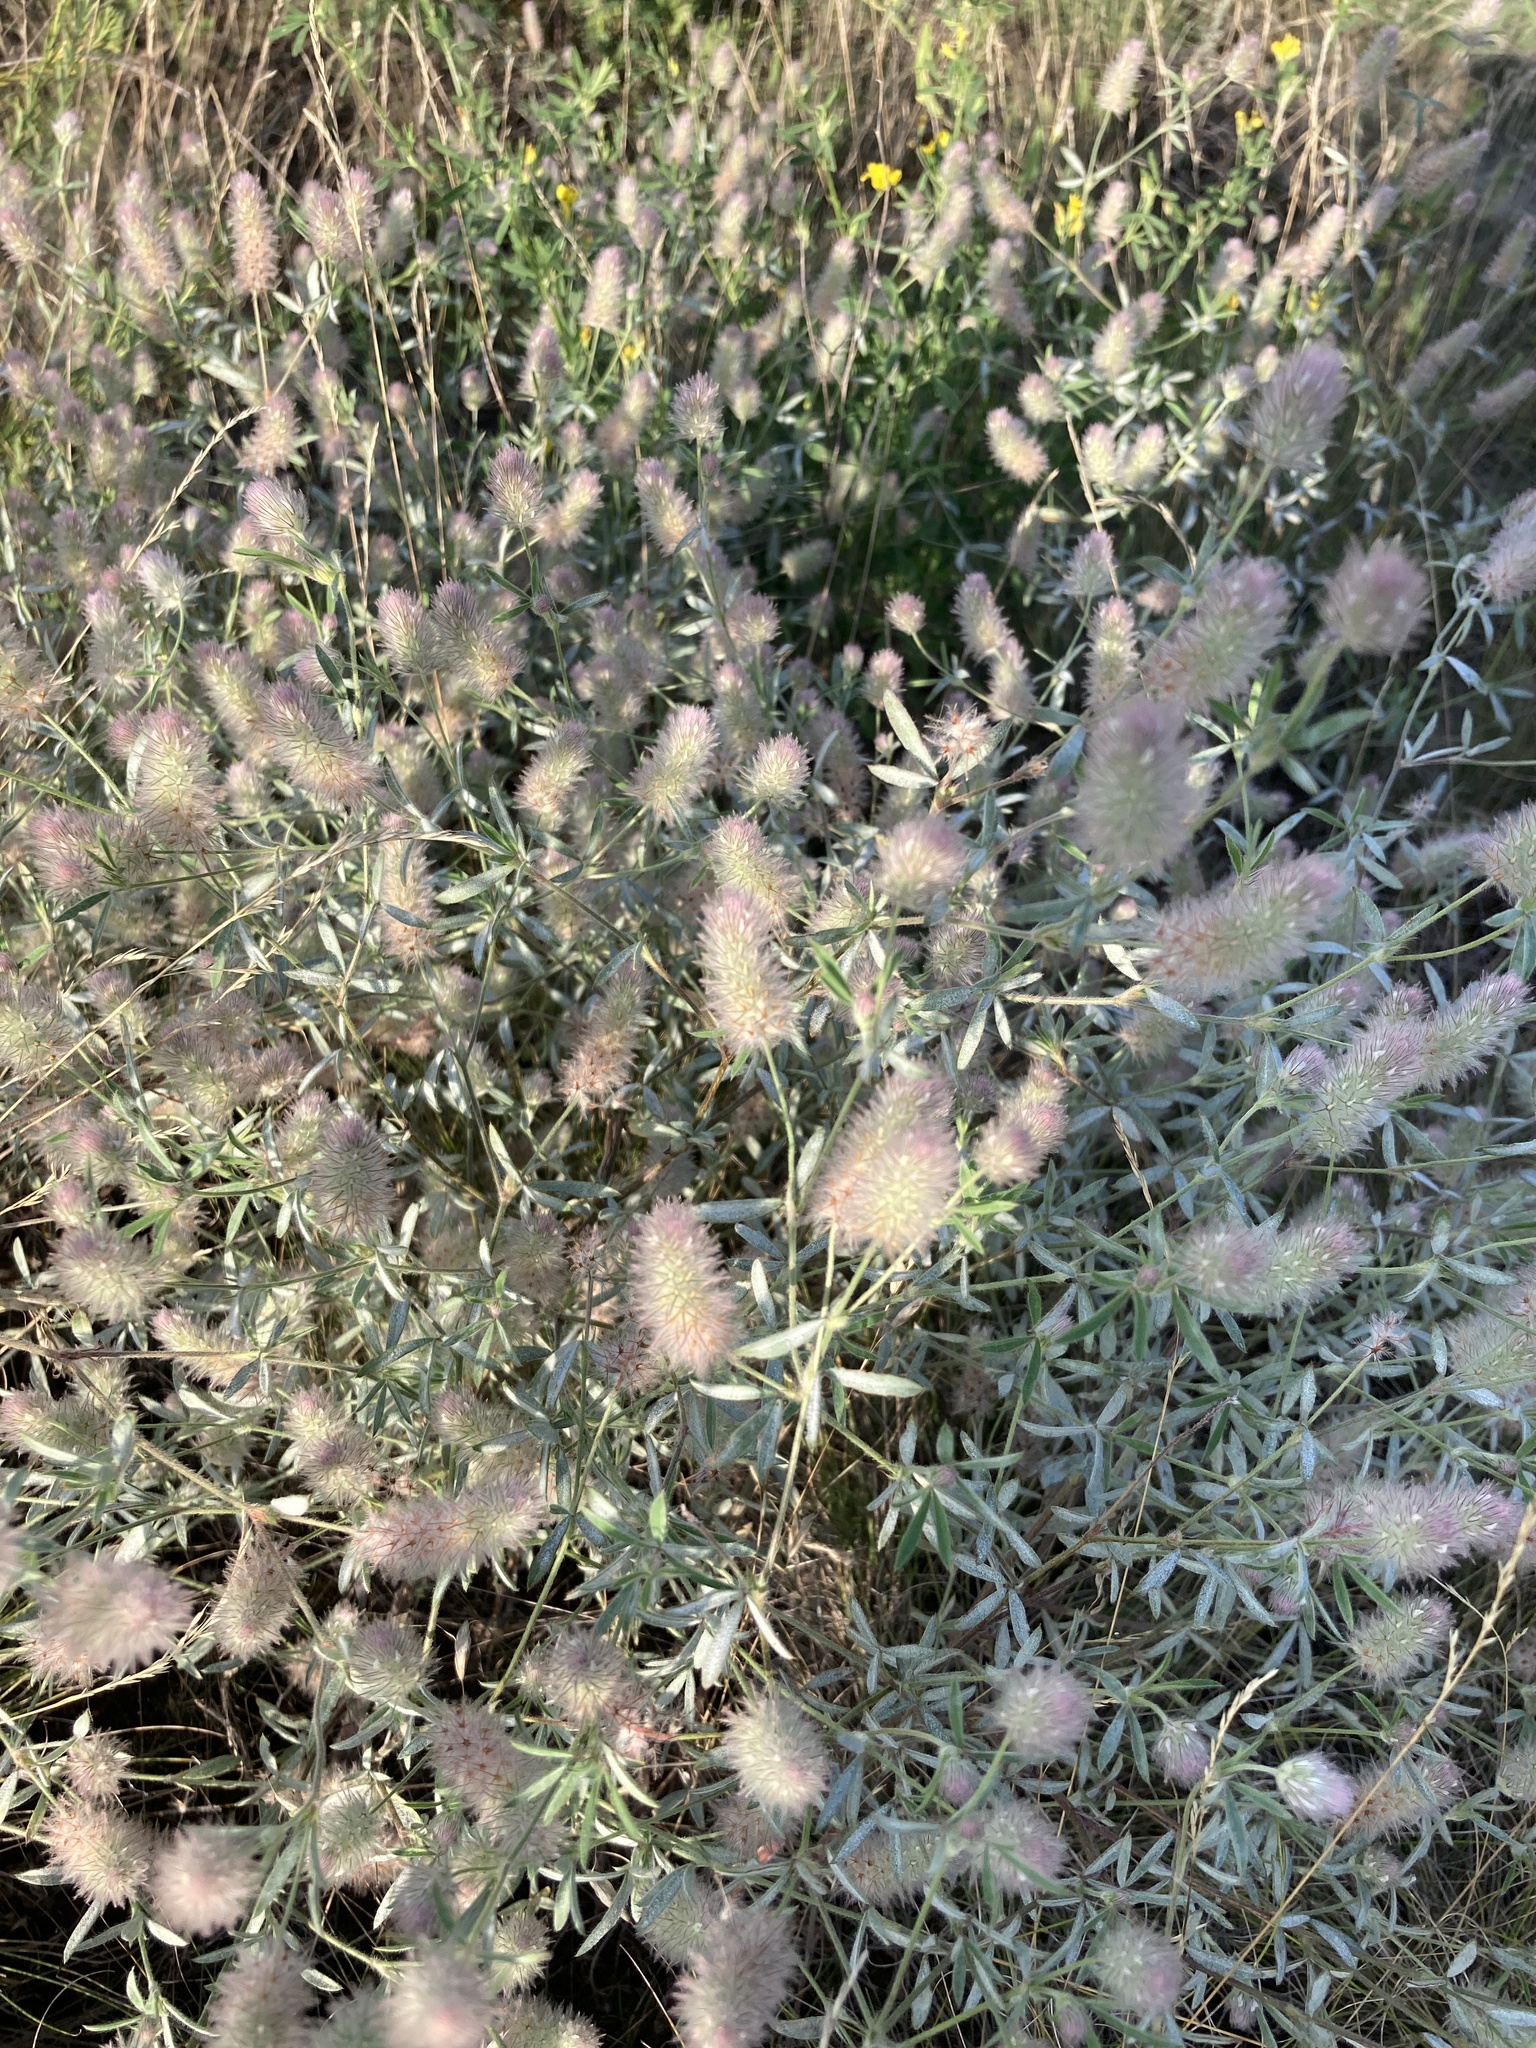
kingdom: Plantae
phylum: Tracheophyta
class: Magnoliopsida
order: Fabales
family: Fabaceae
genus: Trifolium
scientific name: Trifolium arvense
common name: Hare's-foot clover
